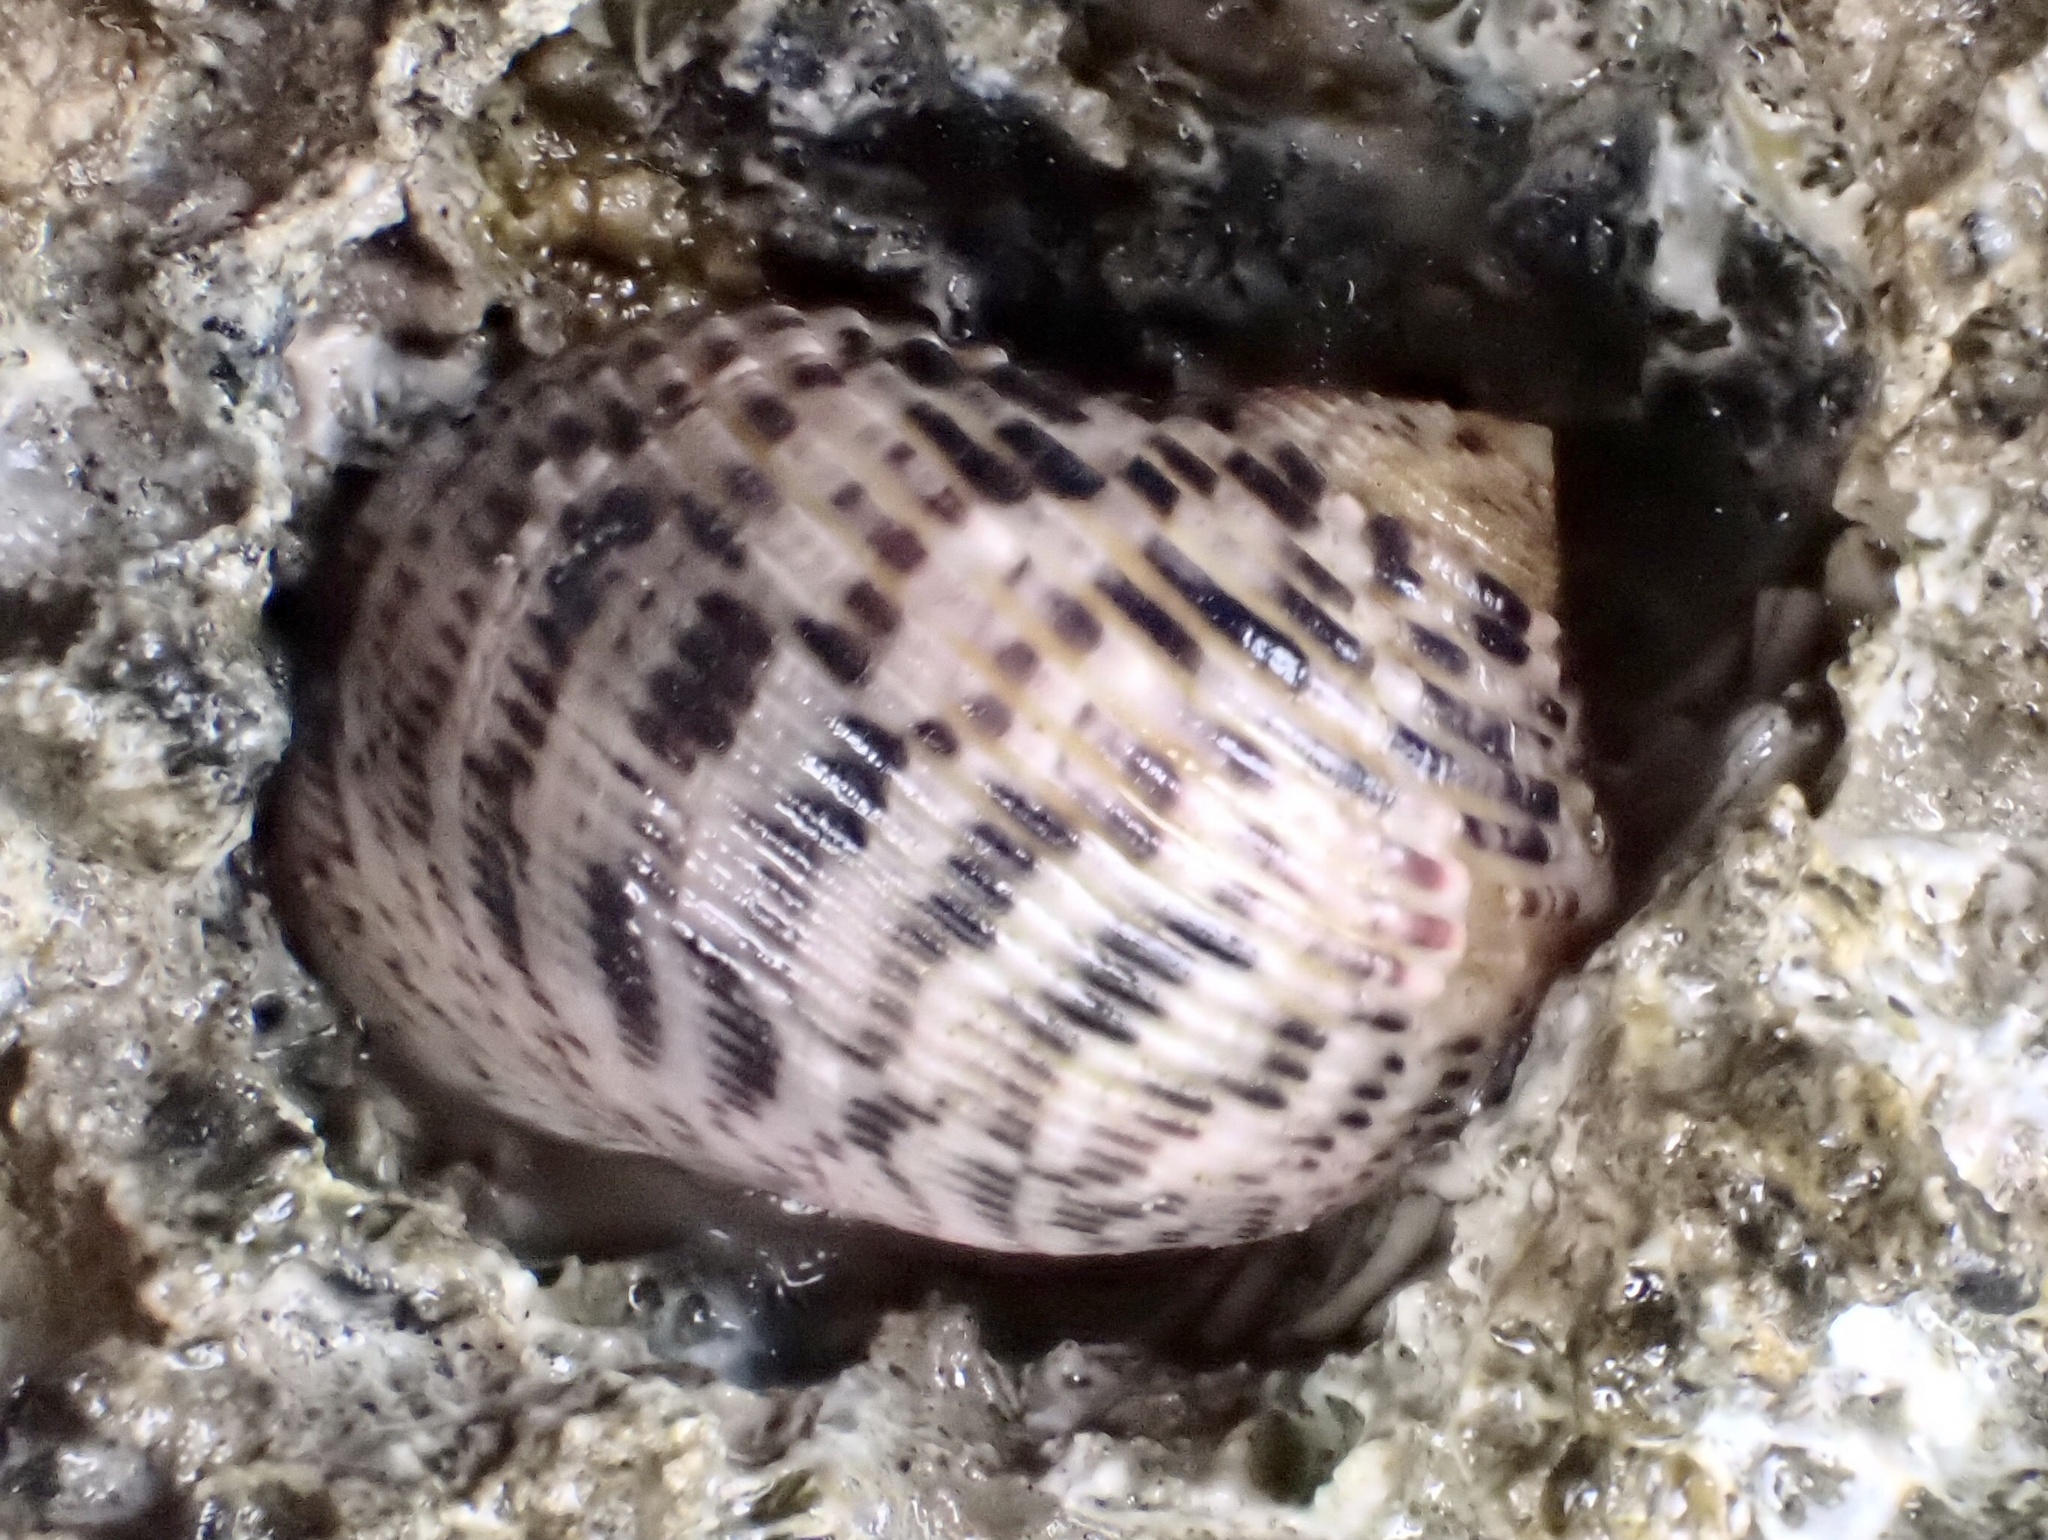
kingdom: Animalia
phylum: Mollusca
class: Gastropoda
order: Cycloneritida
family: Neritidae
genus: Nerita
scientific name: Nerita quadricolor
